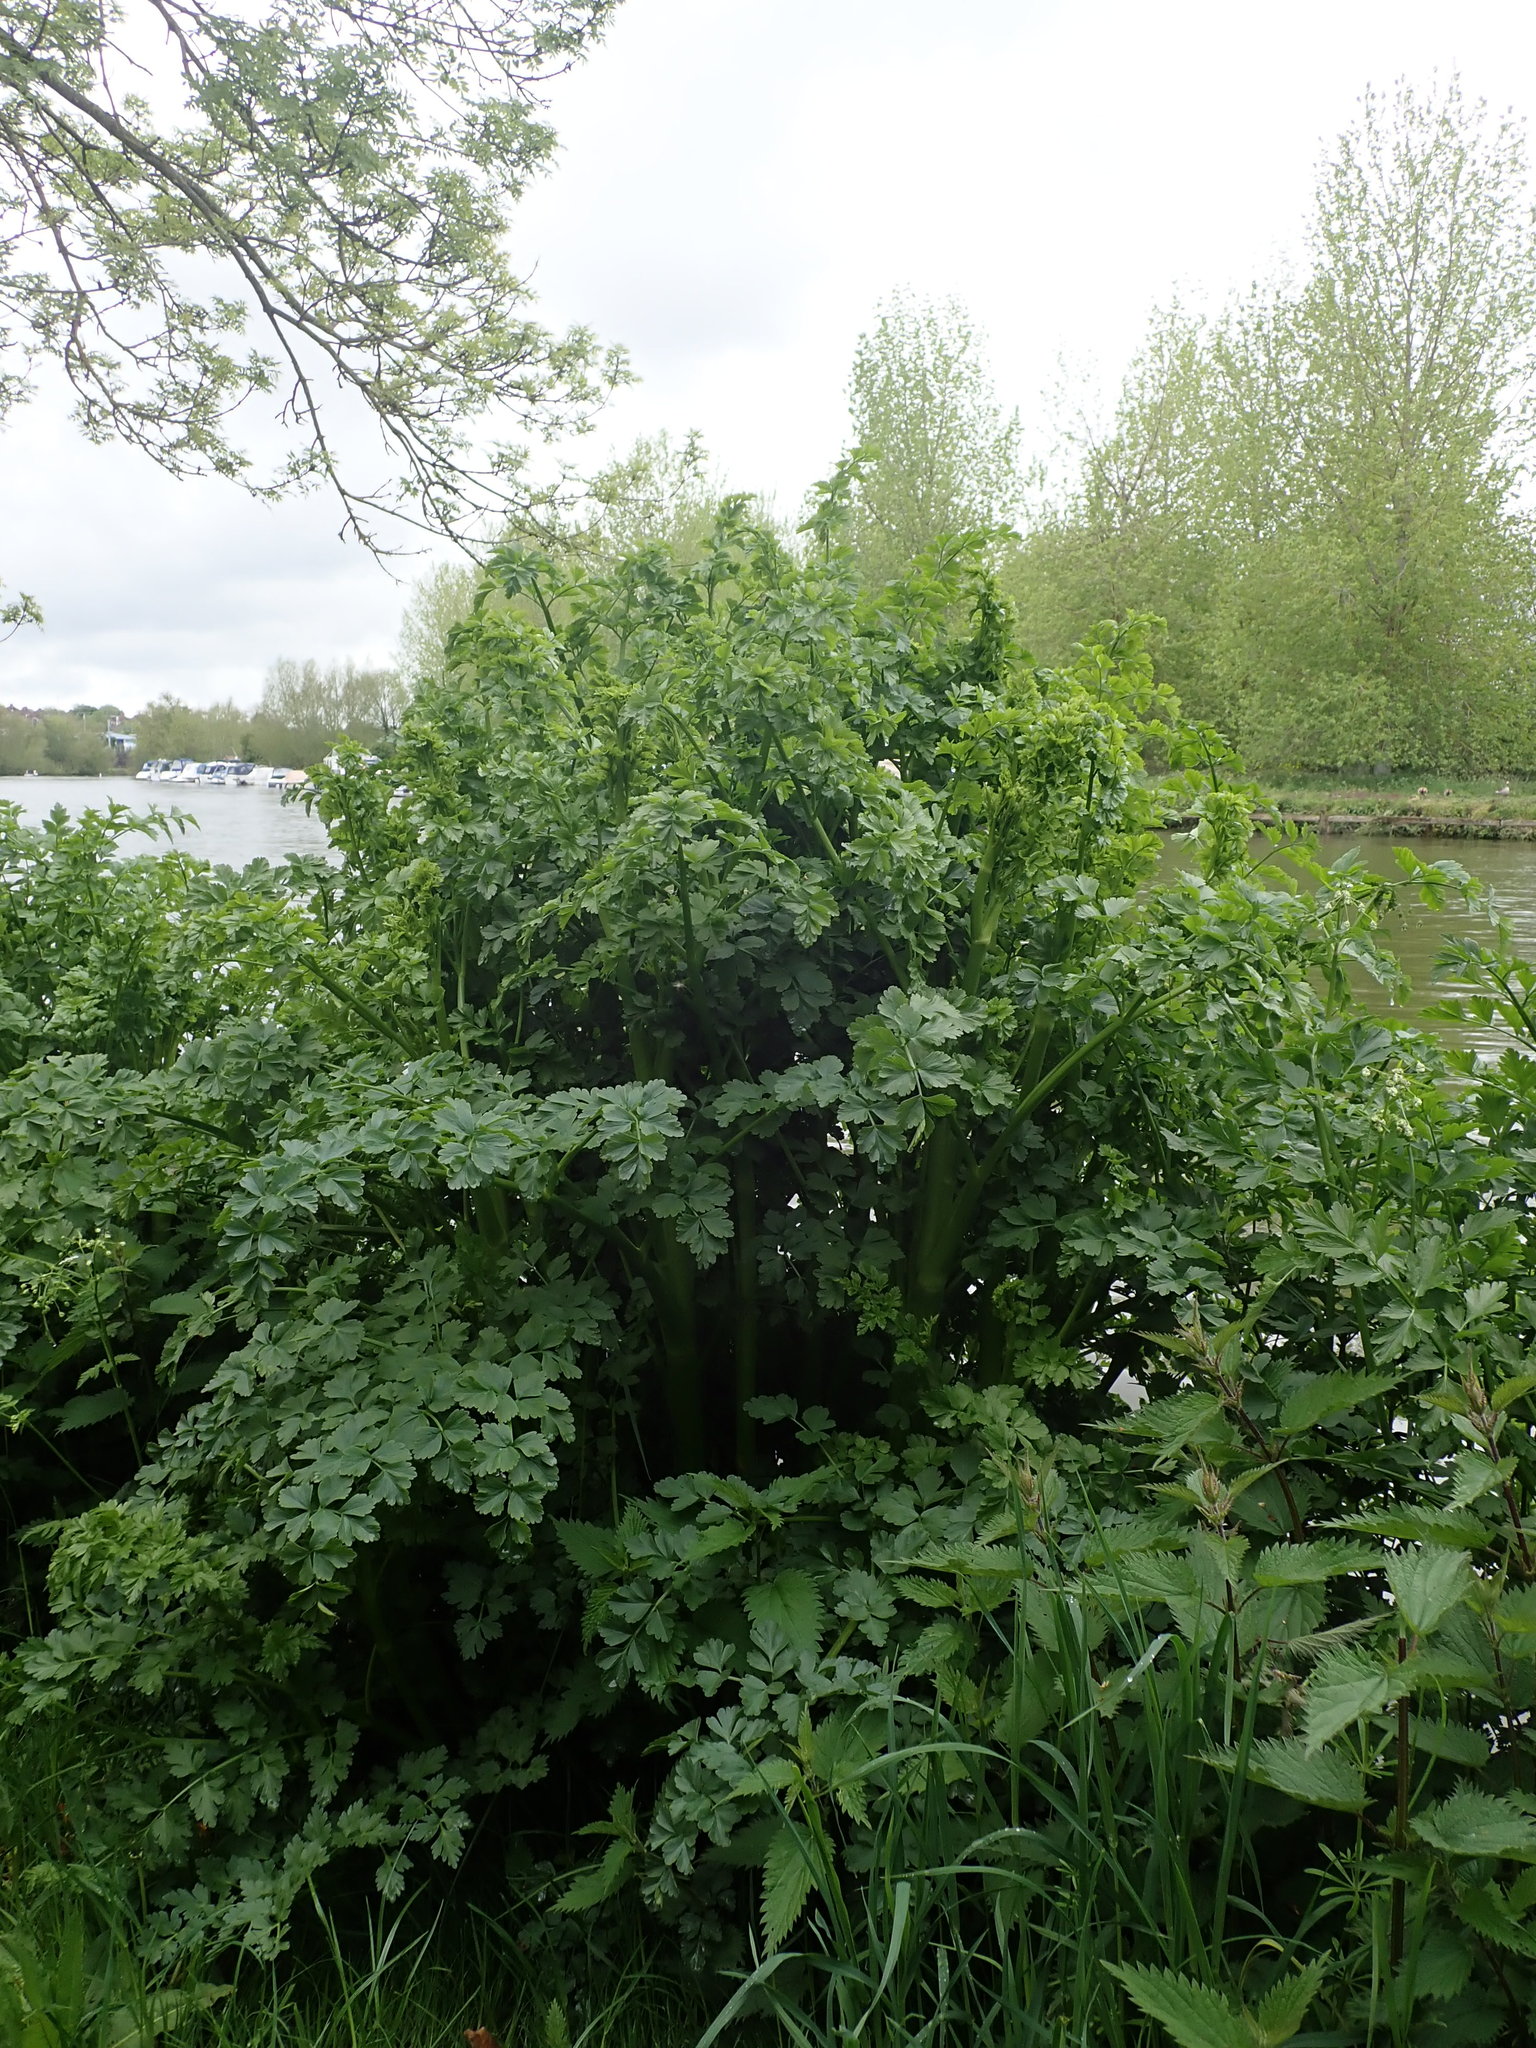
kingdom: Plantae
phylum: Tracheophyta
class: Magnoliopsida
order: Apiales
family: Apiaceae
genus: Oenanthe
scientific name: Oenanthe crocata
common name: Hemlock water-dropwort
